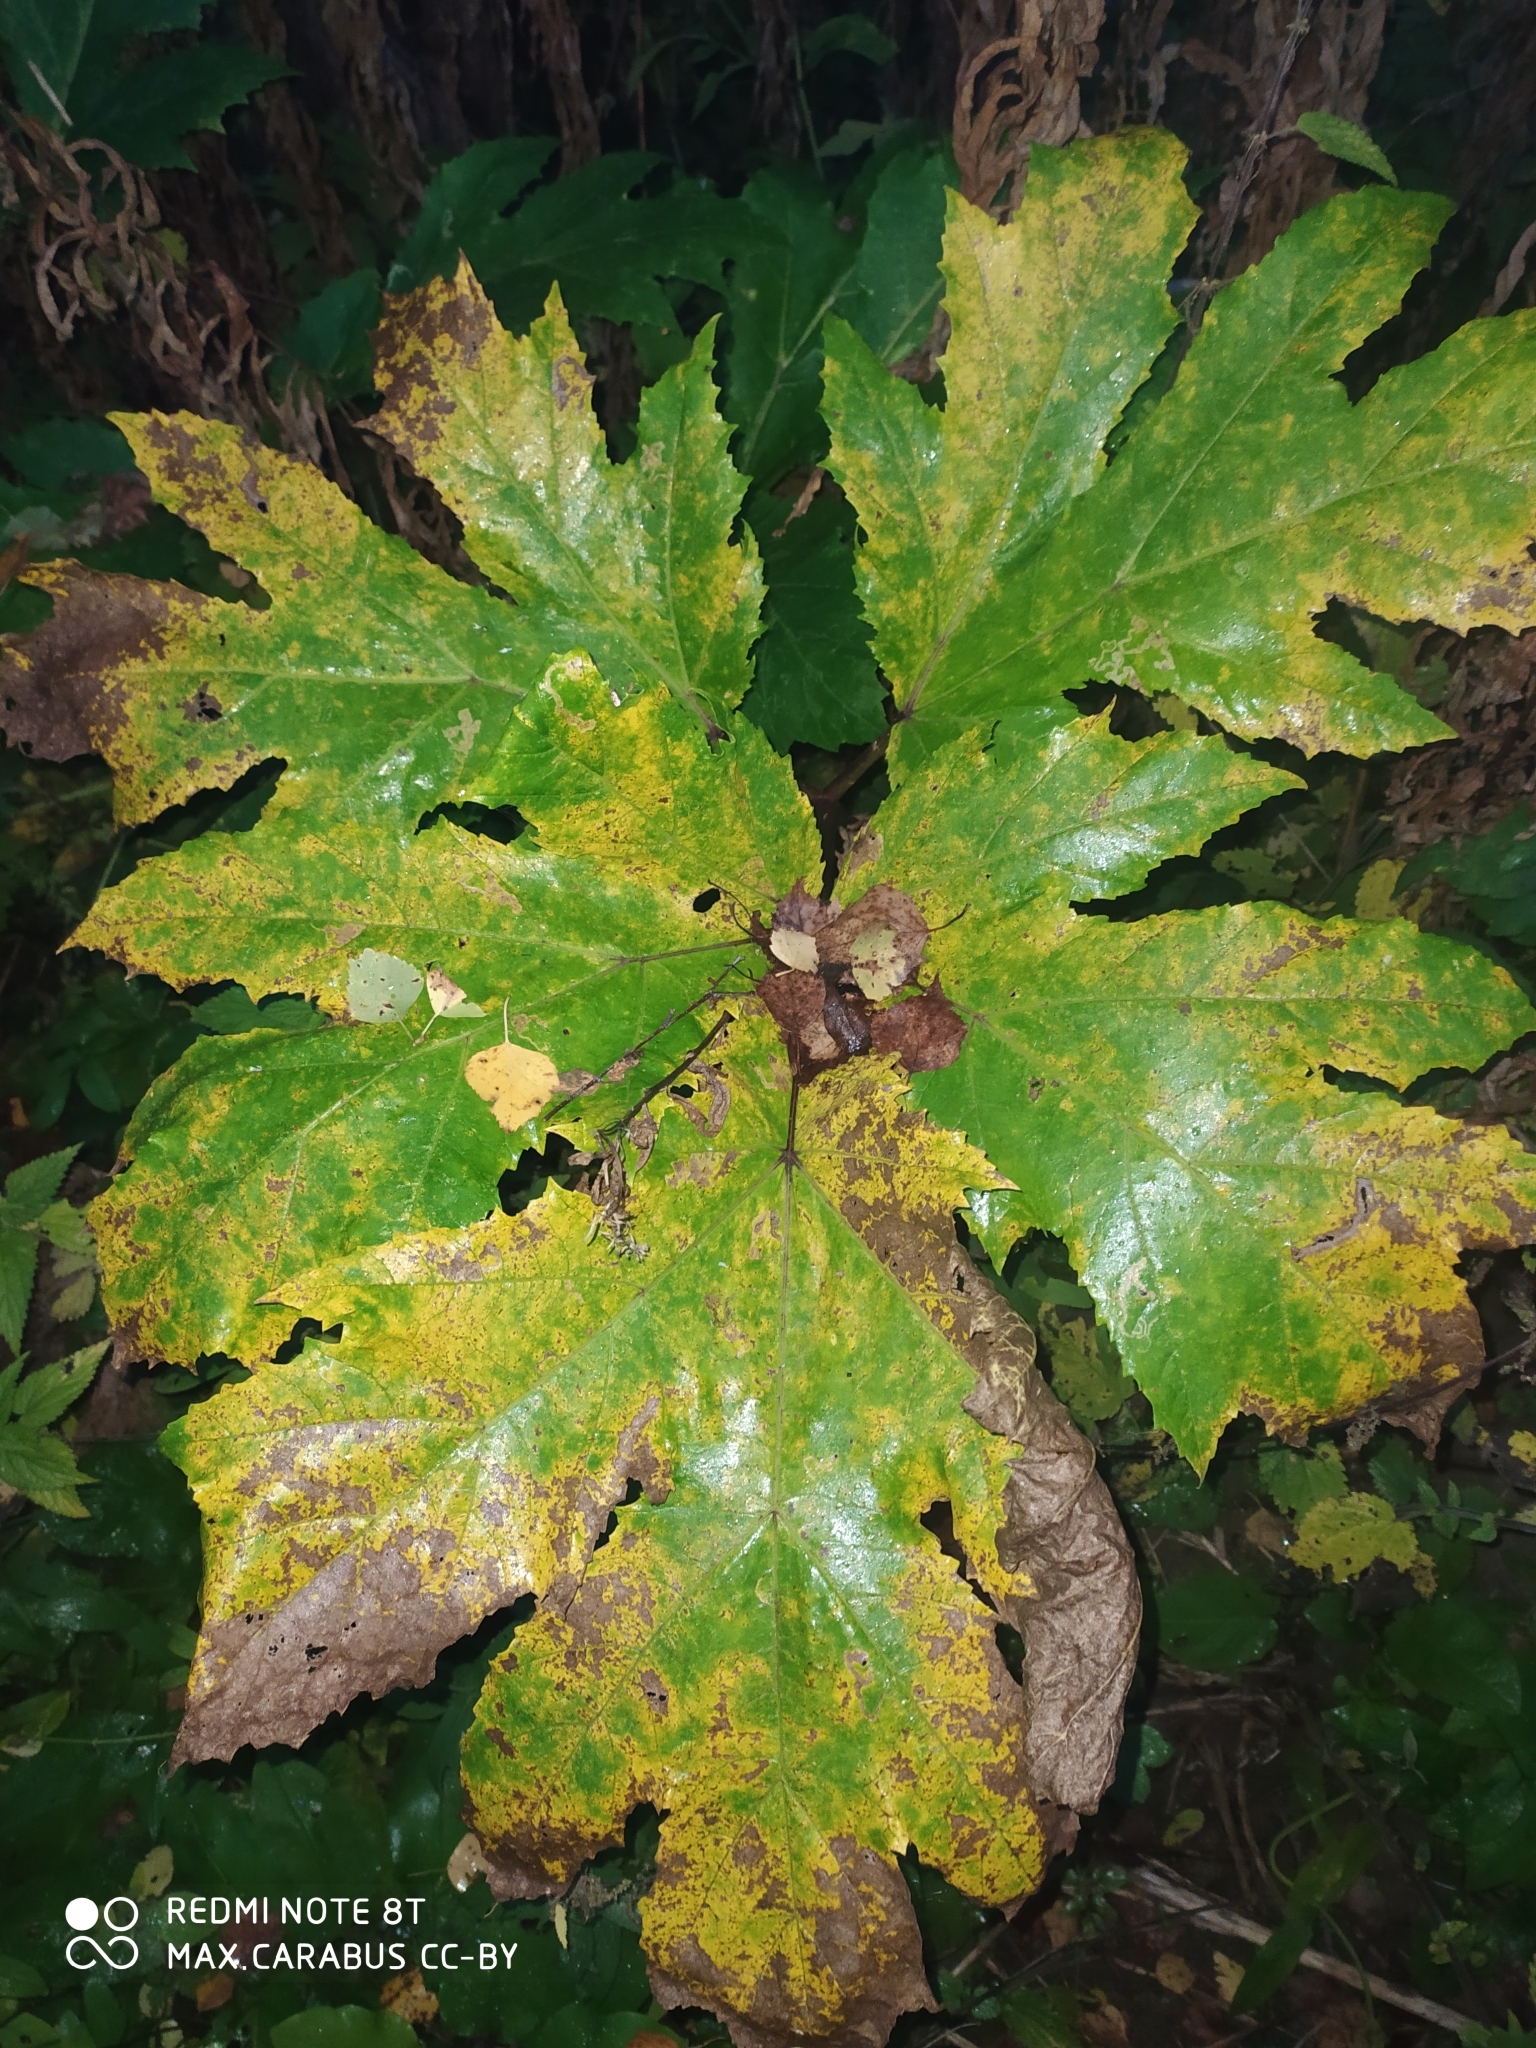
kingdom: Plantae
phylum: Tracheophyta
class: Magnoliopsida
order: Apiales
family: Apiaceae
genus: Heracleum
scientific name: Heracleum sosnowskyi
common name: Sosnowsky's hogweed
